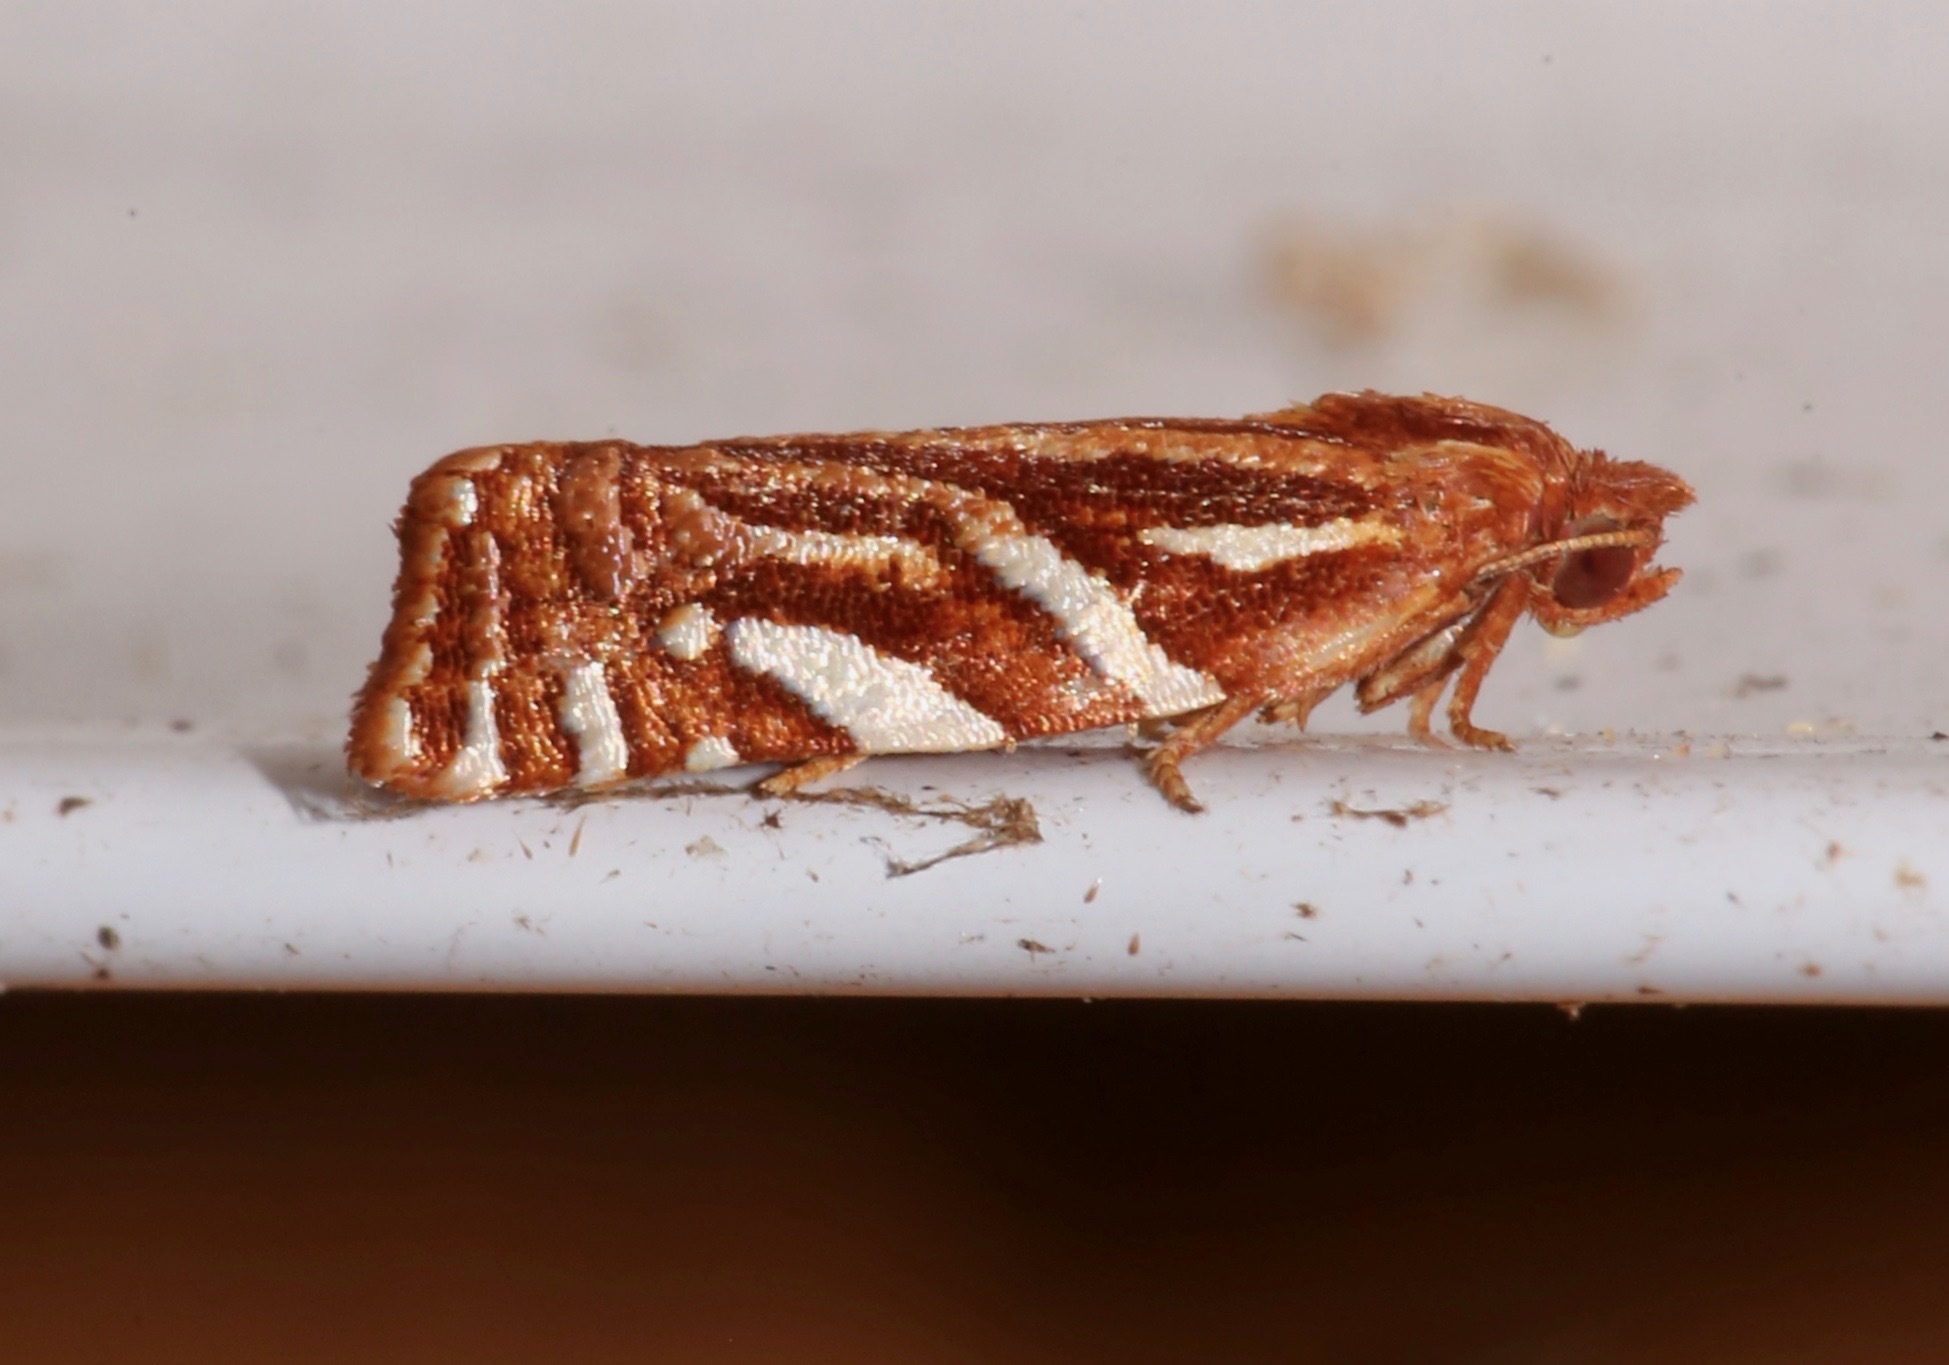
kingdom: Animalia
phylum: Arthropoda
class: Insecta
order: Lepidoptera
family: Tortricidae
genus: Choristoneura
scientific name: Choristoneura argentifasciata
